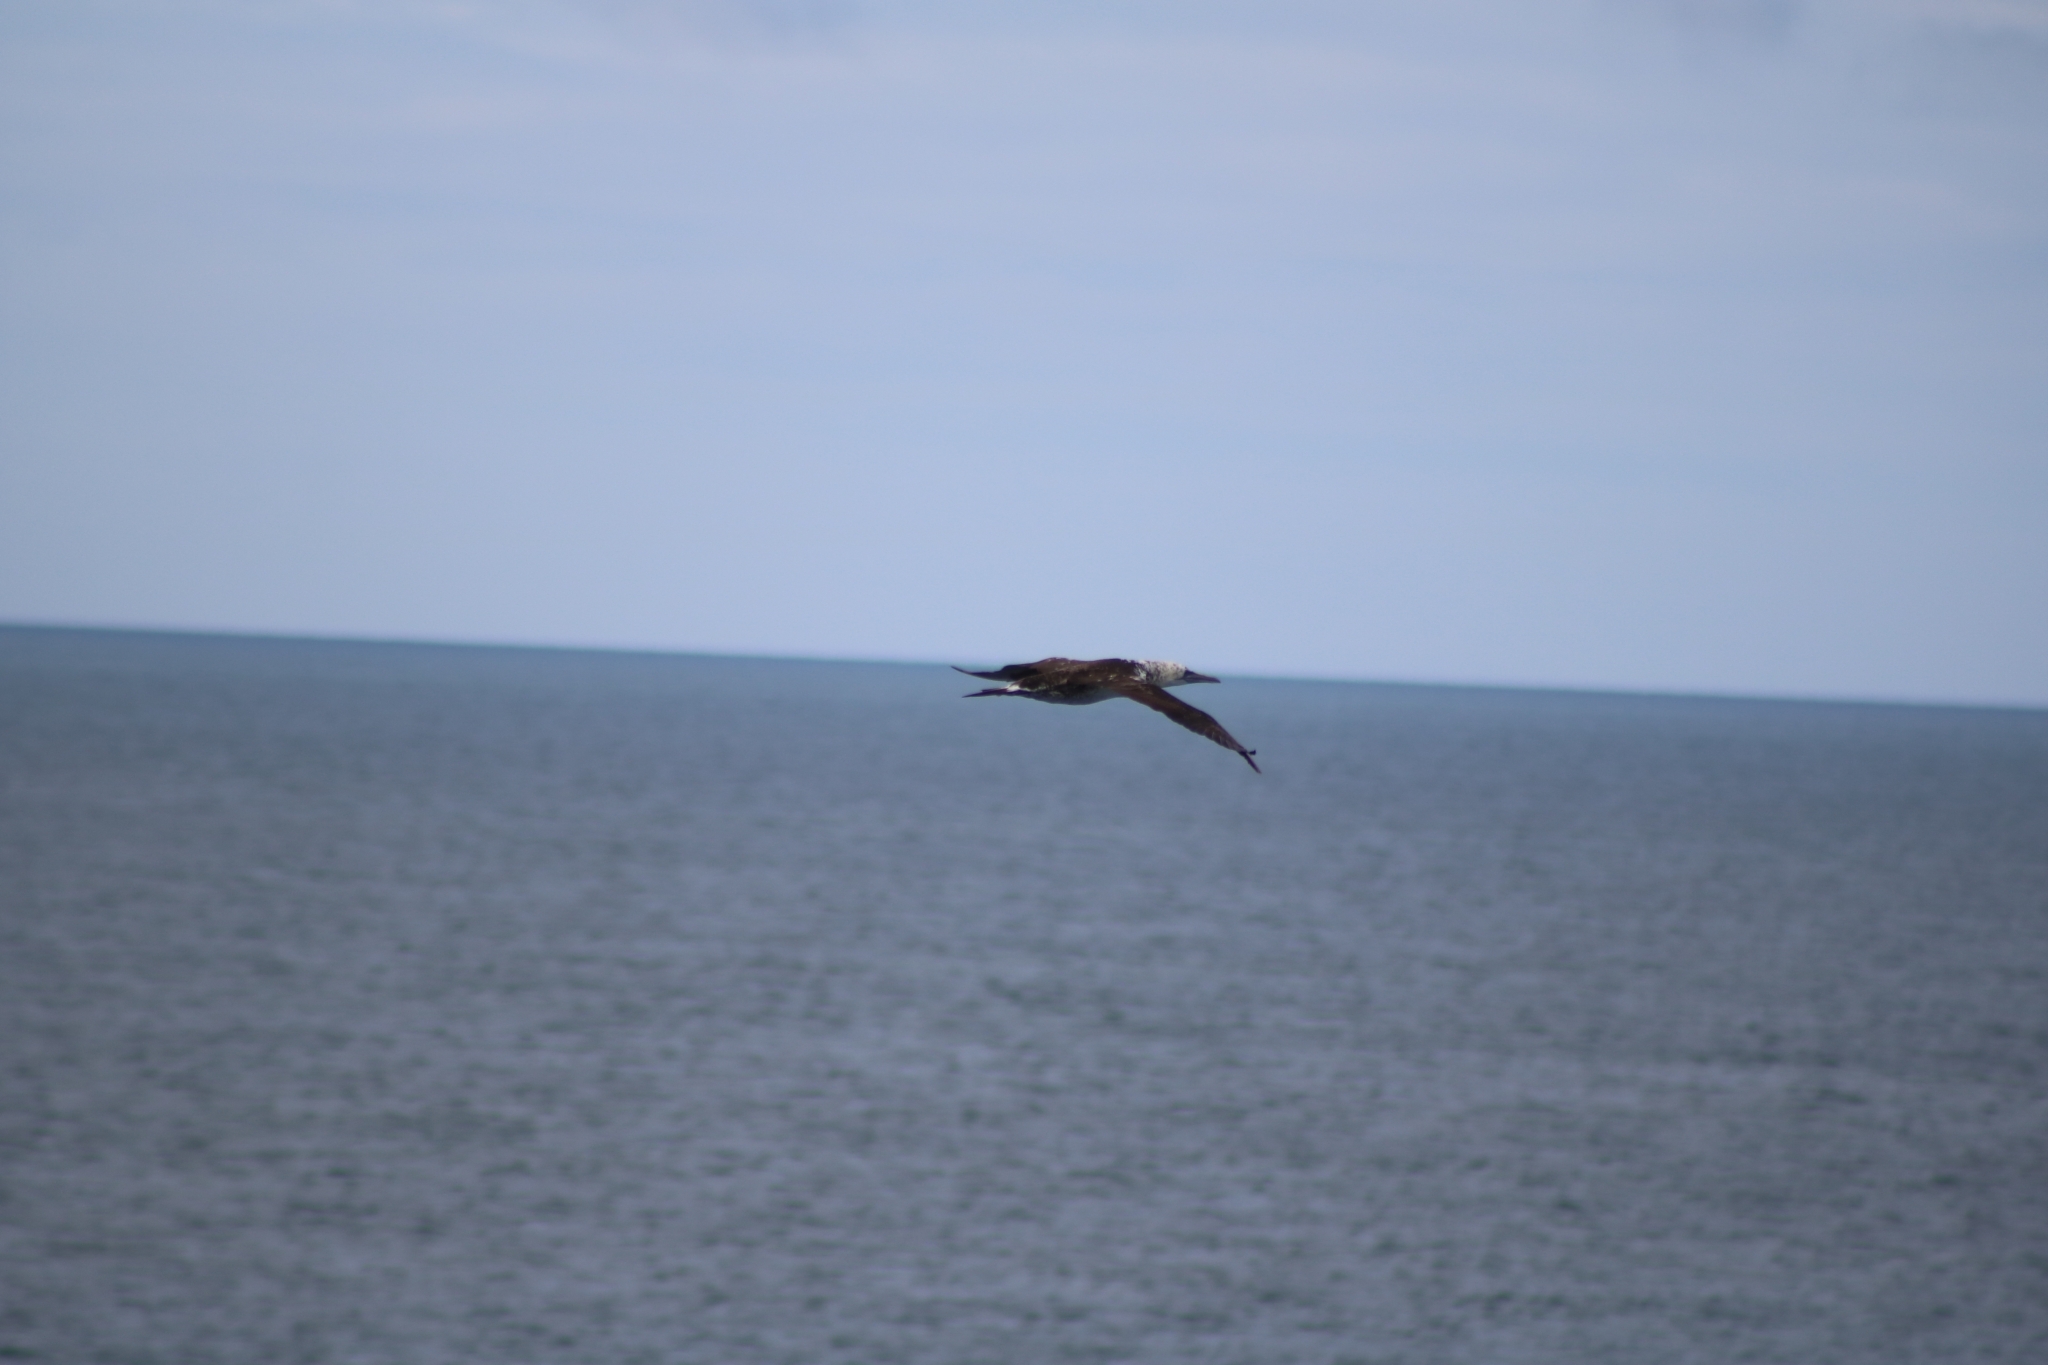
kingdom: Animalia
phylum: Chordata
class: Aves
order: Suliformes
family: Sulidae
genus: Morus
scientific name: Morus bassanus
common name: Northern gannet
